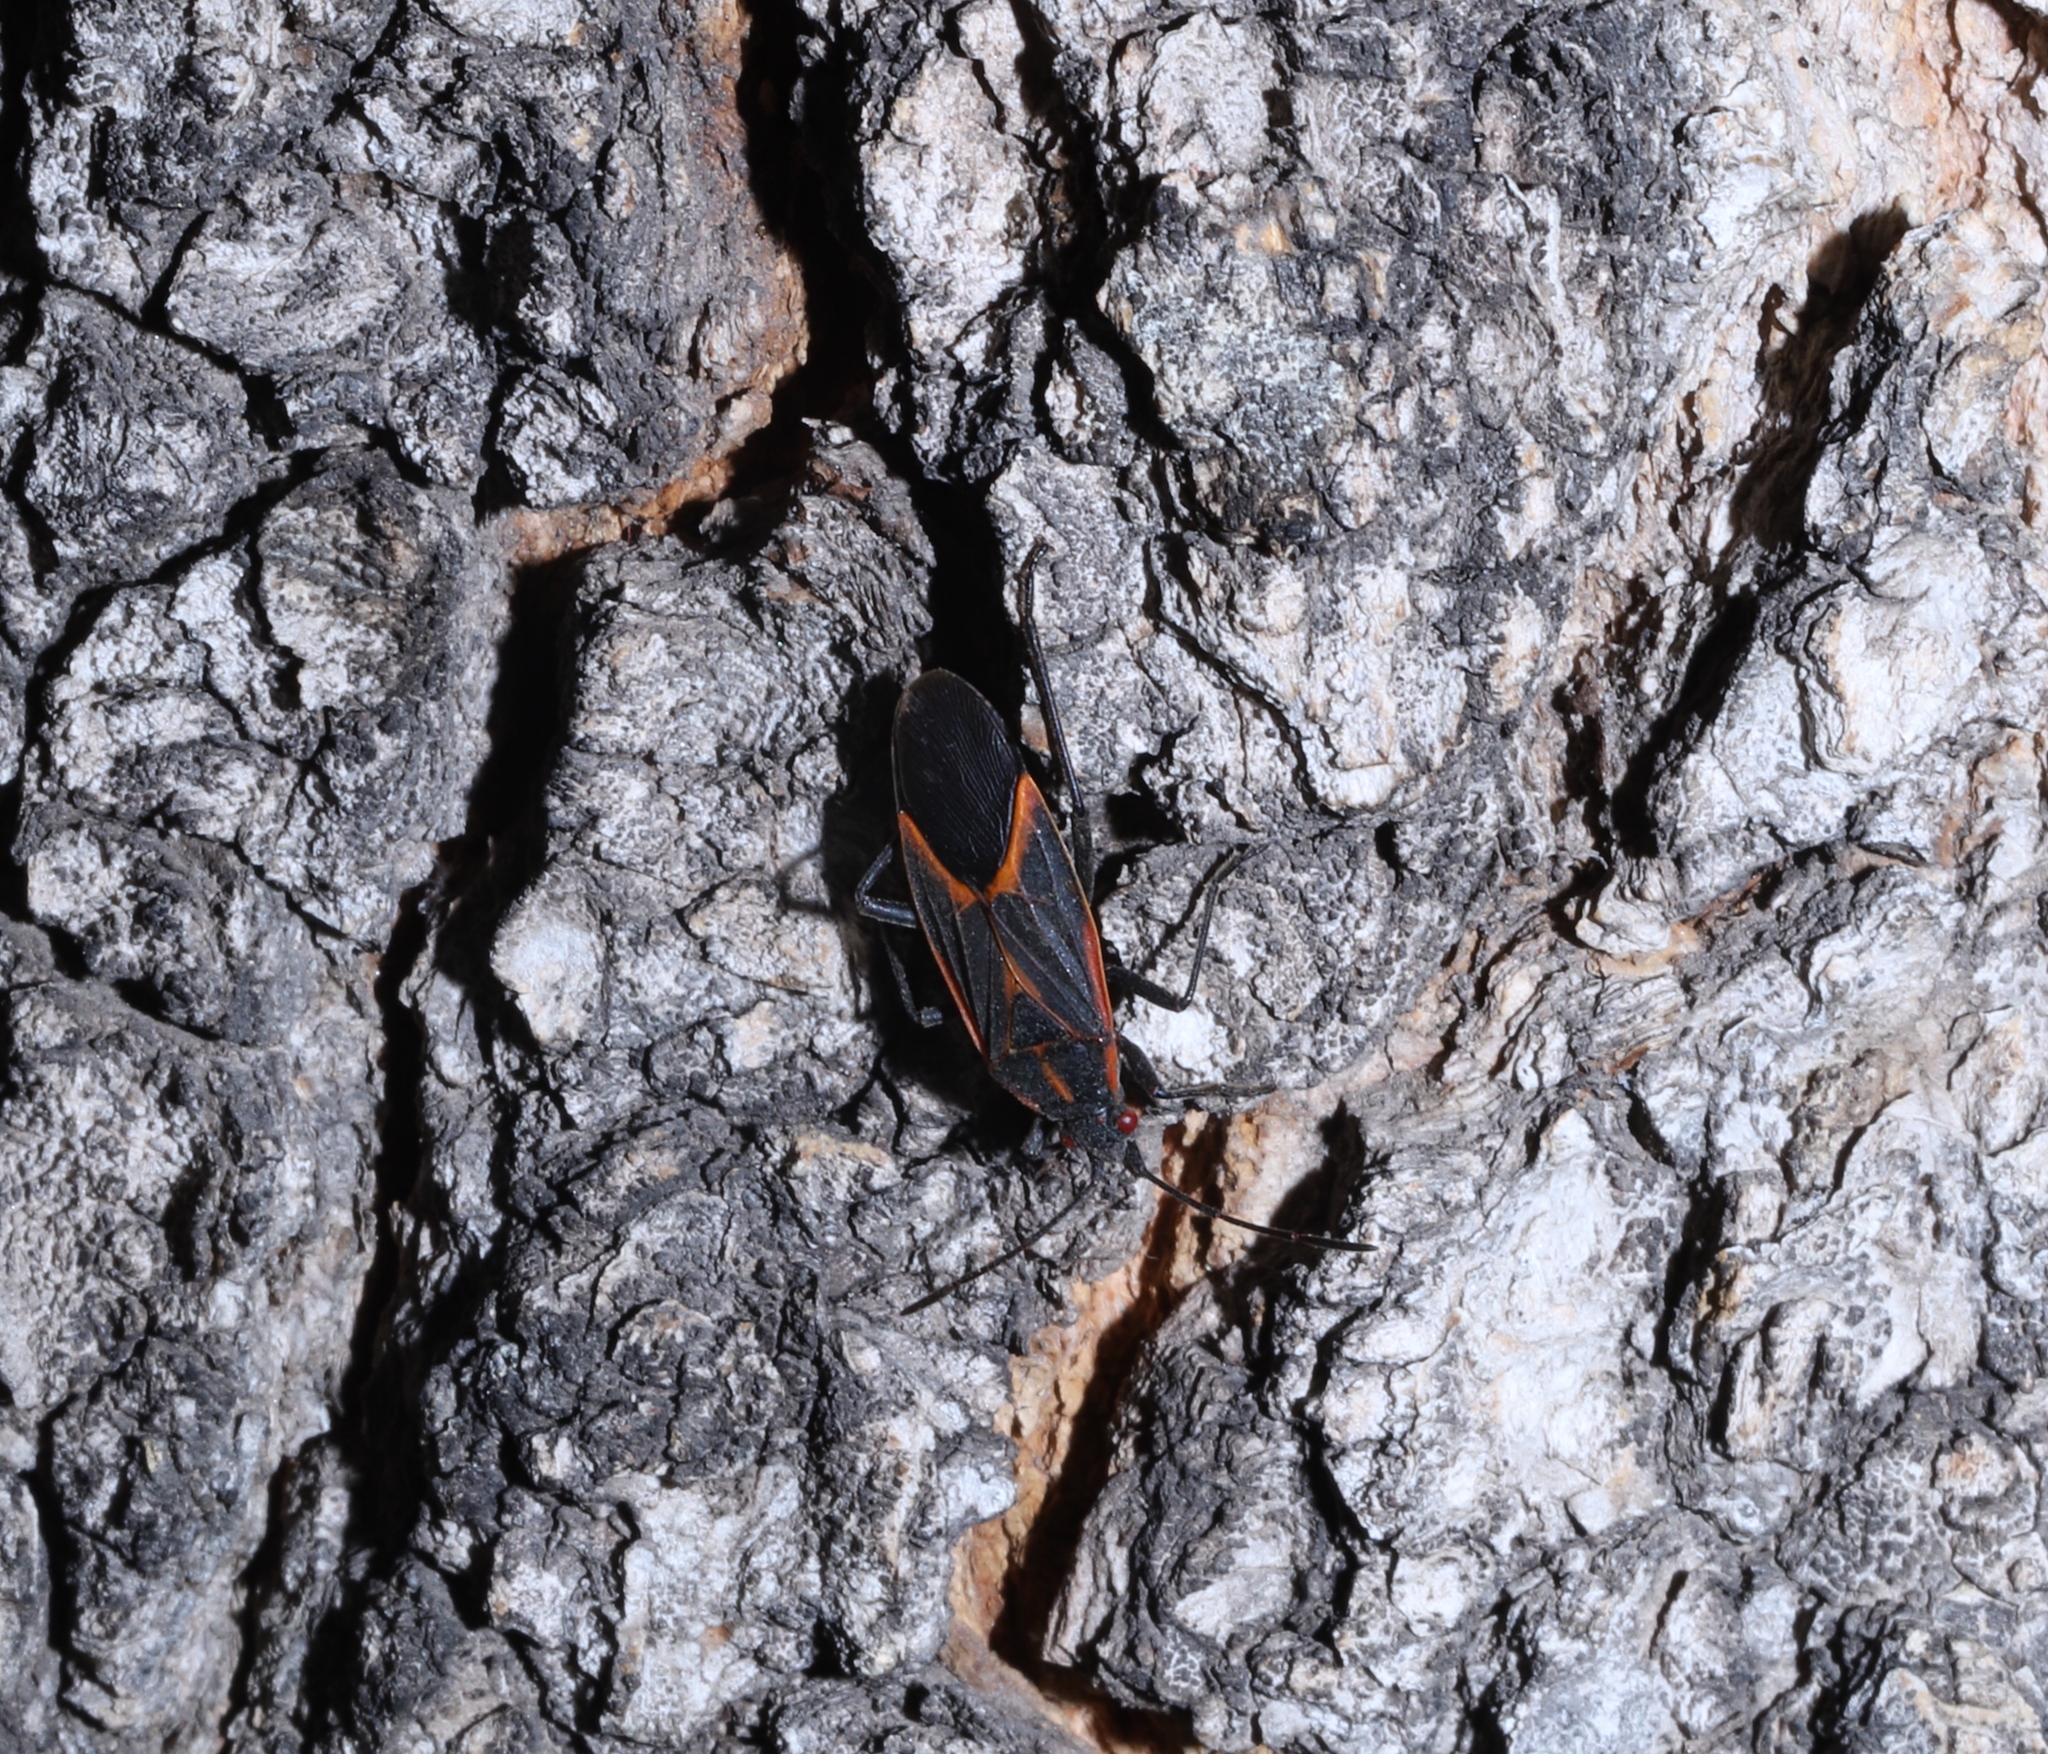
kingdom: Animalia
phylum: Arthropoda
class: Insecta
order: Hemiptera
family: Rhopalidae
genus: Boisea
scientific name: Boisea trivittata
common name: Boxelder bug
